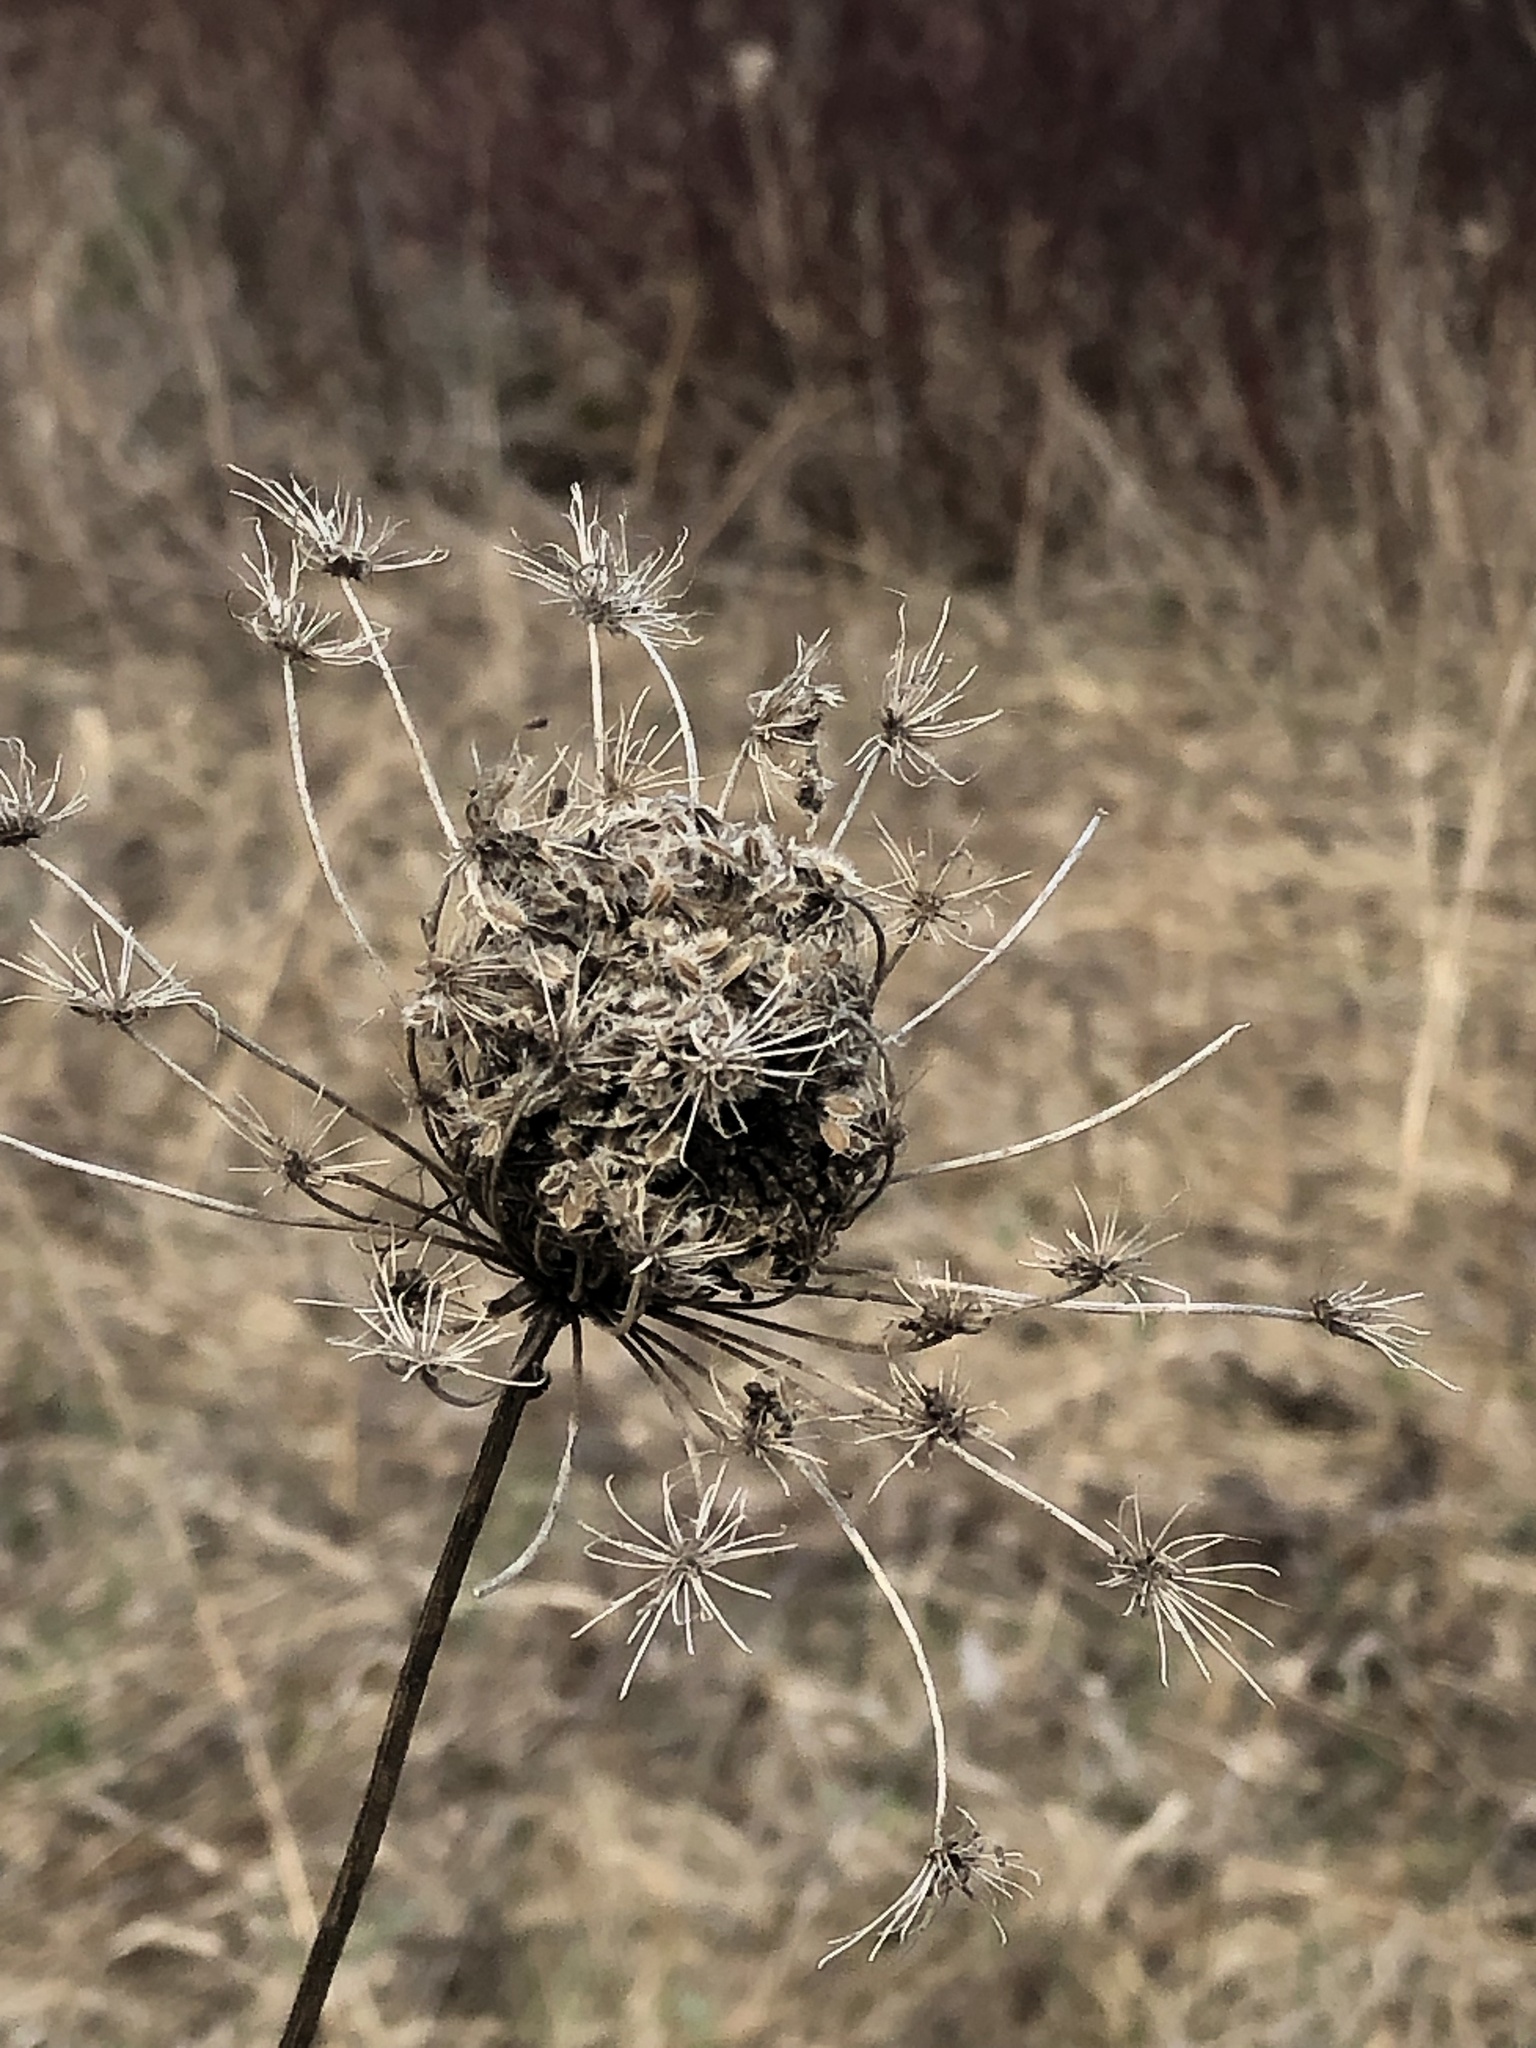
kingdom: Plantae
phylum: Tracheophyta
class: Magnoliopsida
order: Apiales
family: Apiaceae
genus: Daucus
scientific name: Daucus carota
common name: Wild carrot
